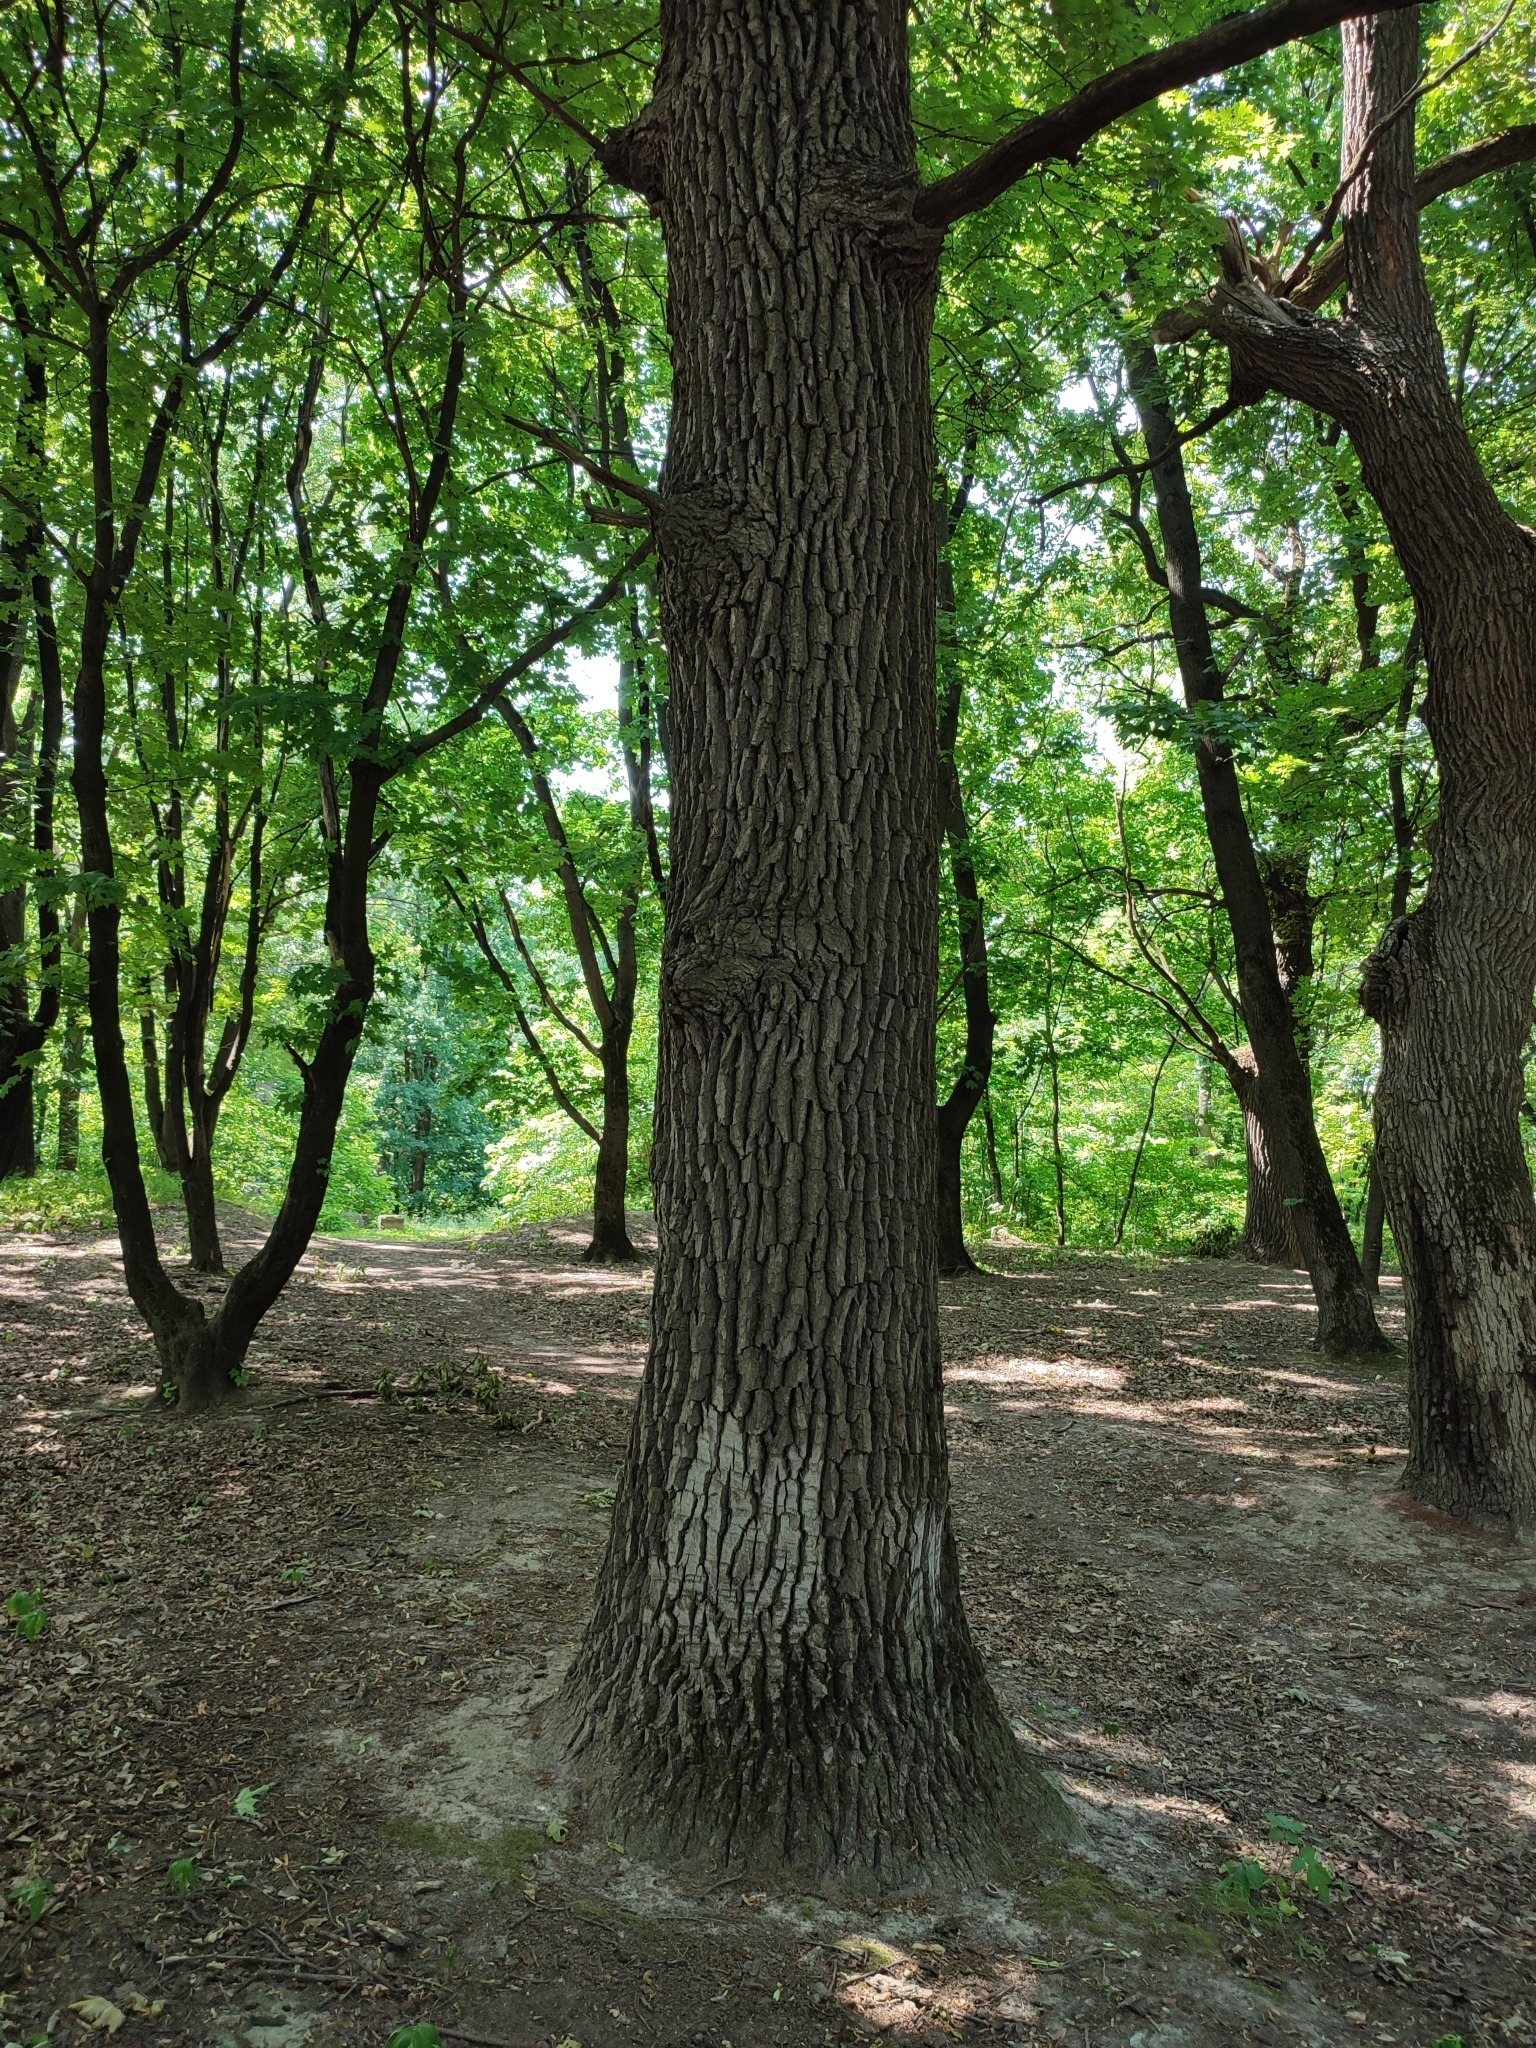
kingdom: Plantae
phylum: Tracheophyta
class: Magnoliopsida
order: Fagales
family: Fagaceae
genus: Quercus
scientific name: Quercus robur
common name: Pedunculate oak
